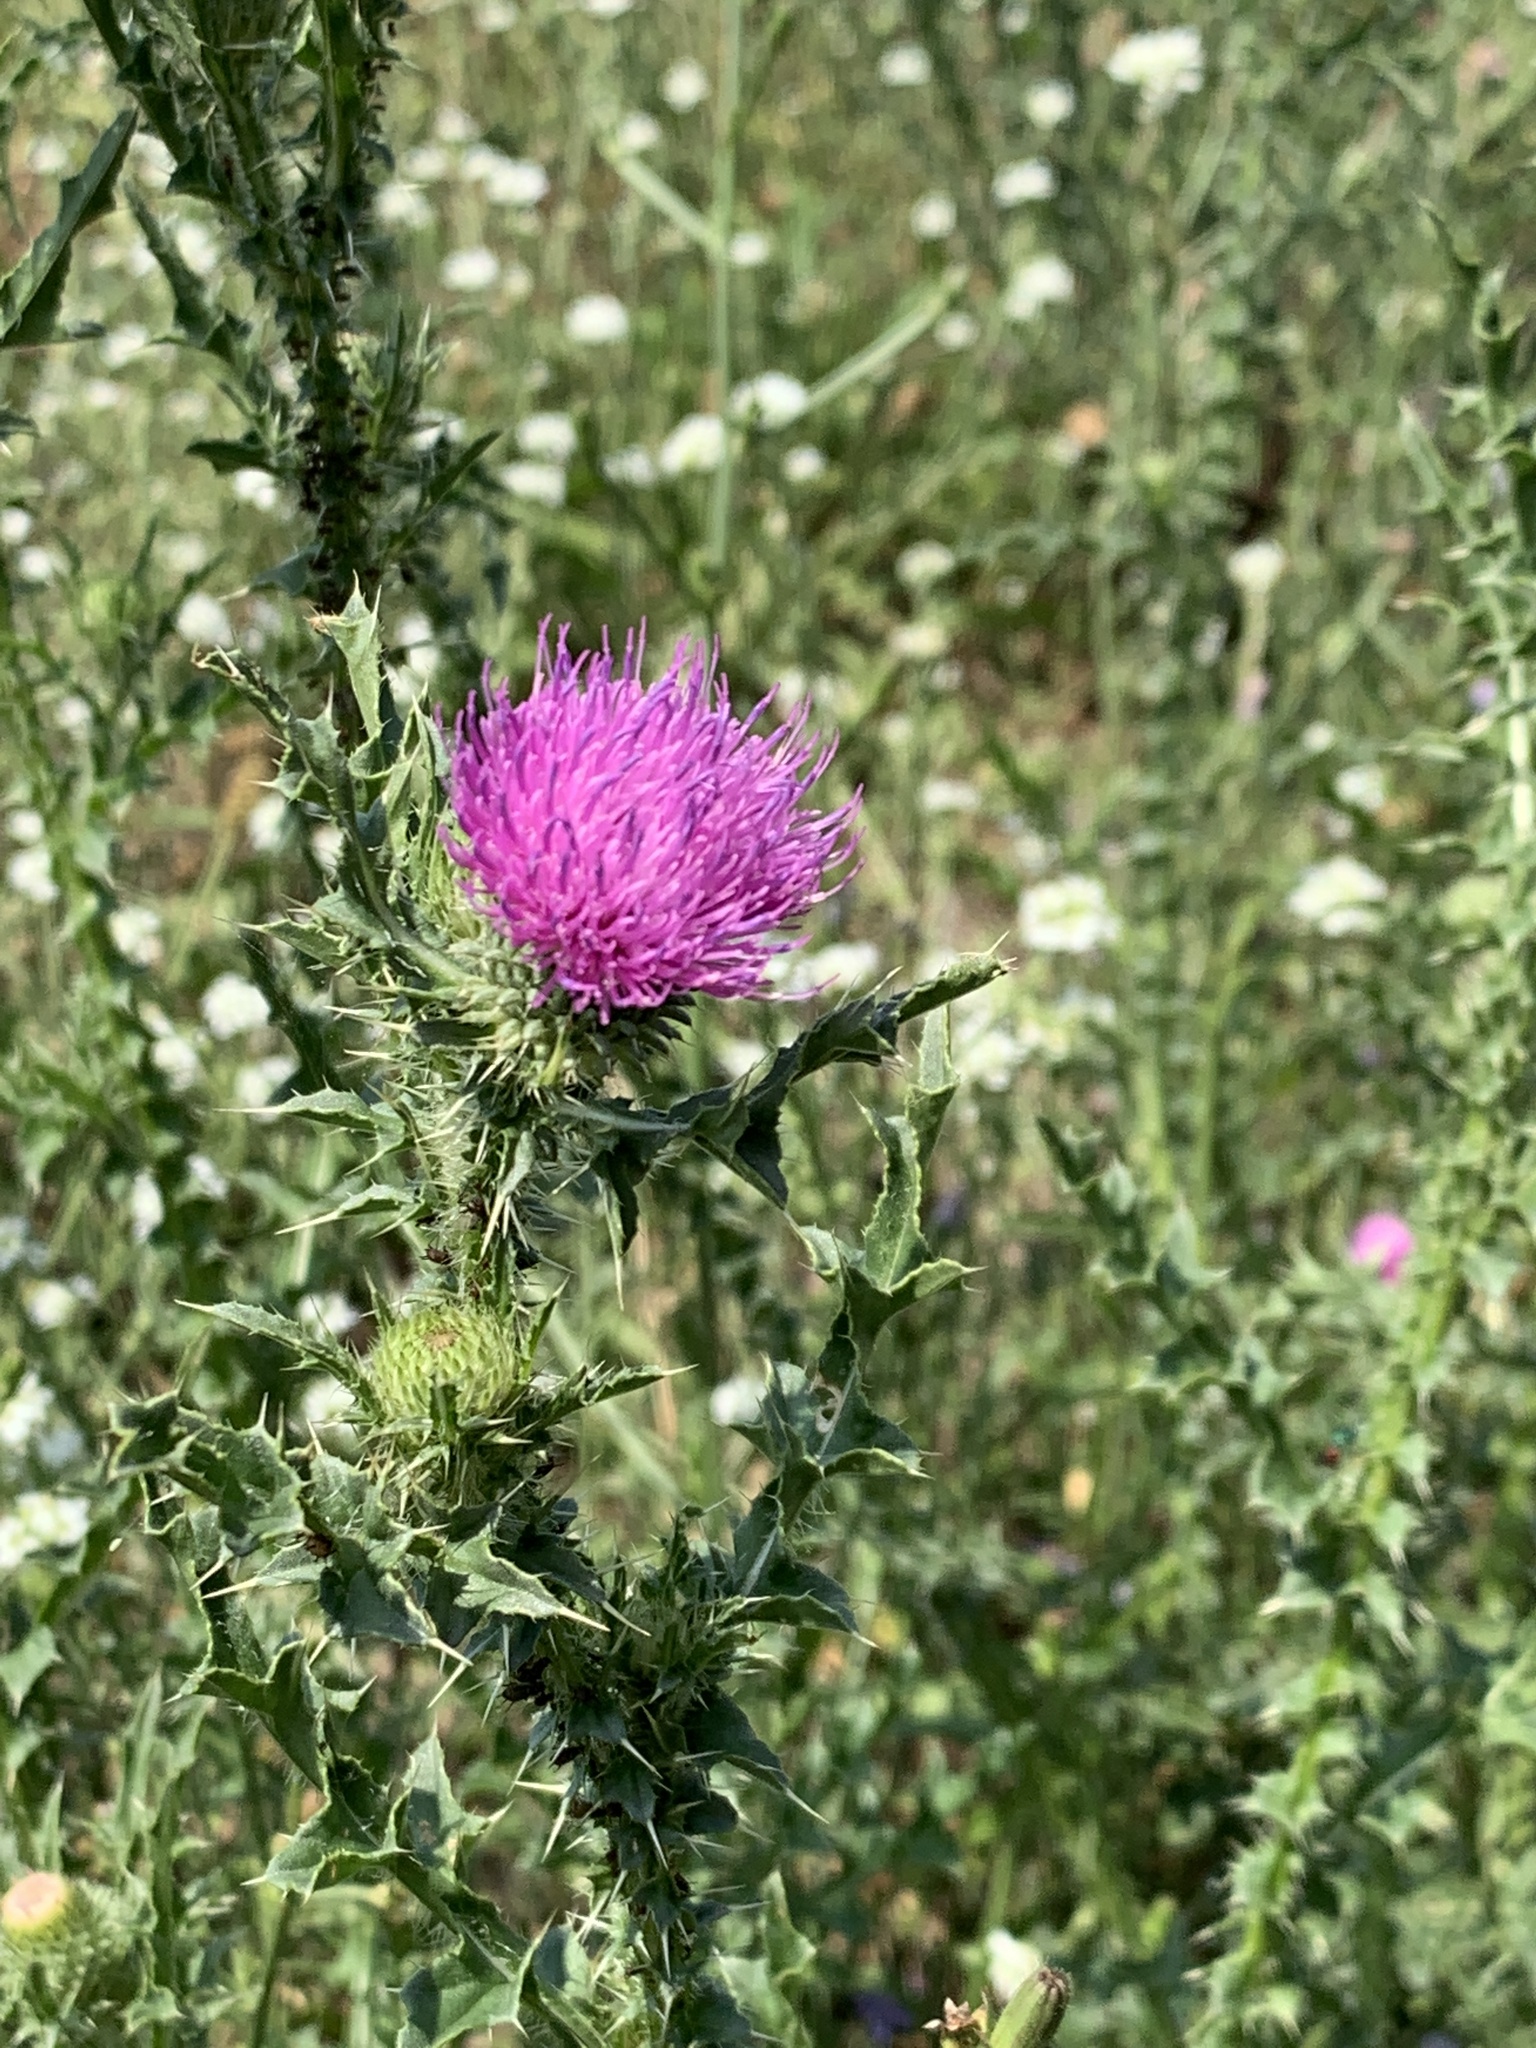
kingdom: Plantae
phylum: Tracheophyta
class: Magnoliopsida
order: Asterales
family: Asteraceae
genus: Carduus
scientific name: Carduus acanthoides
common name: Plumeless thistle
